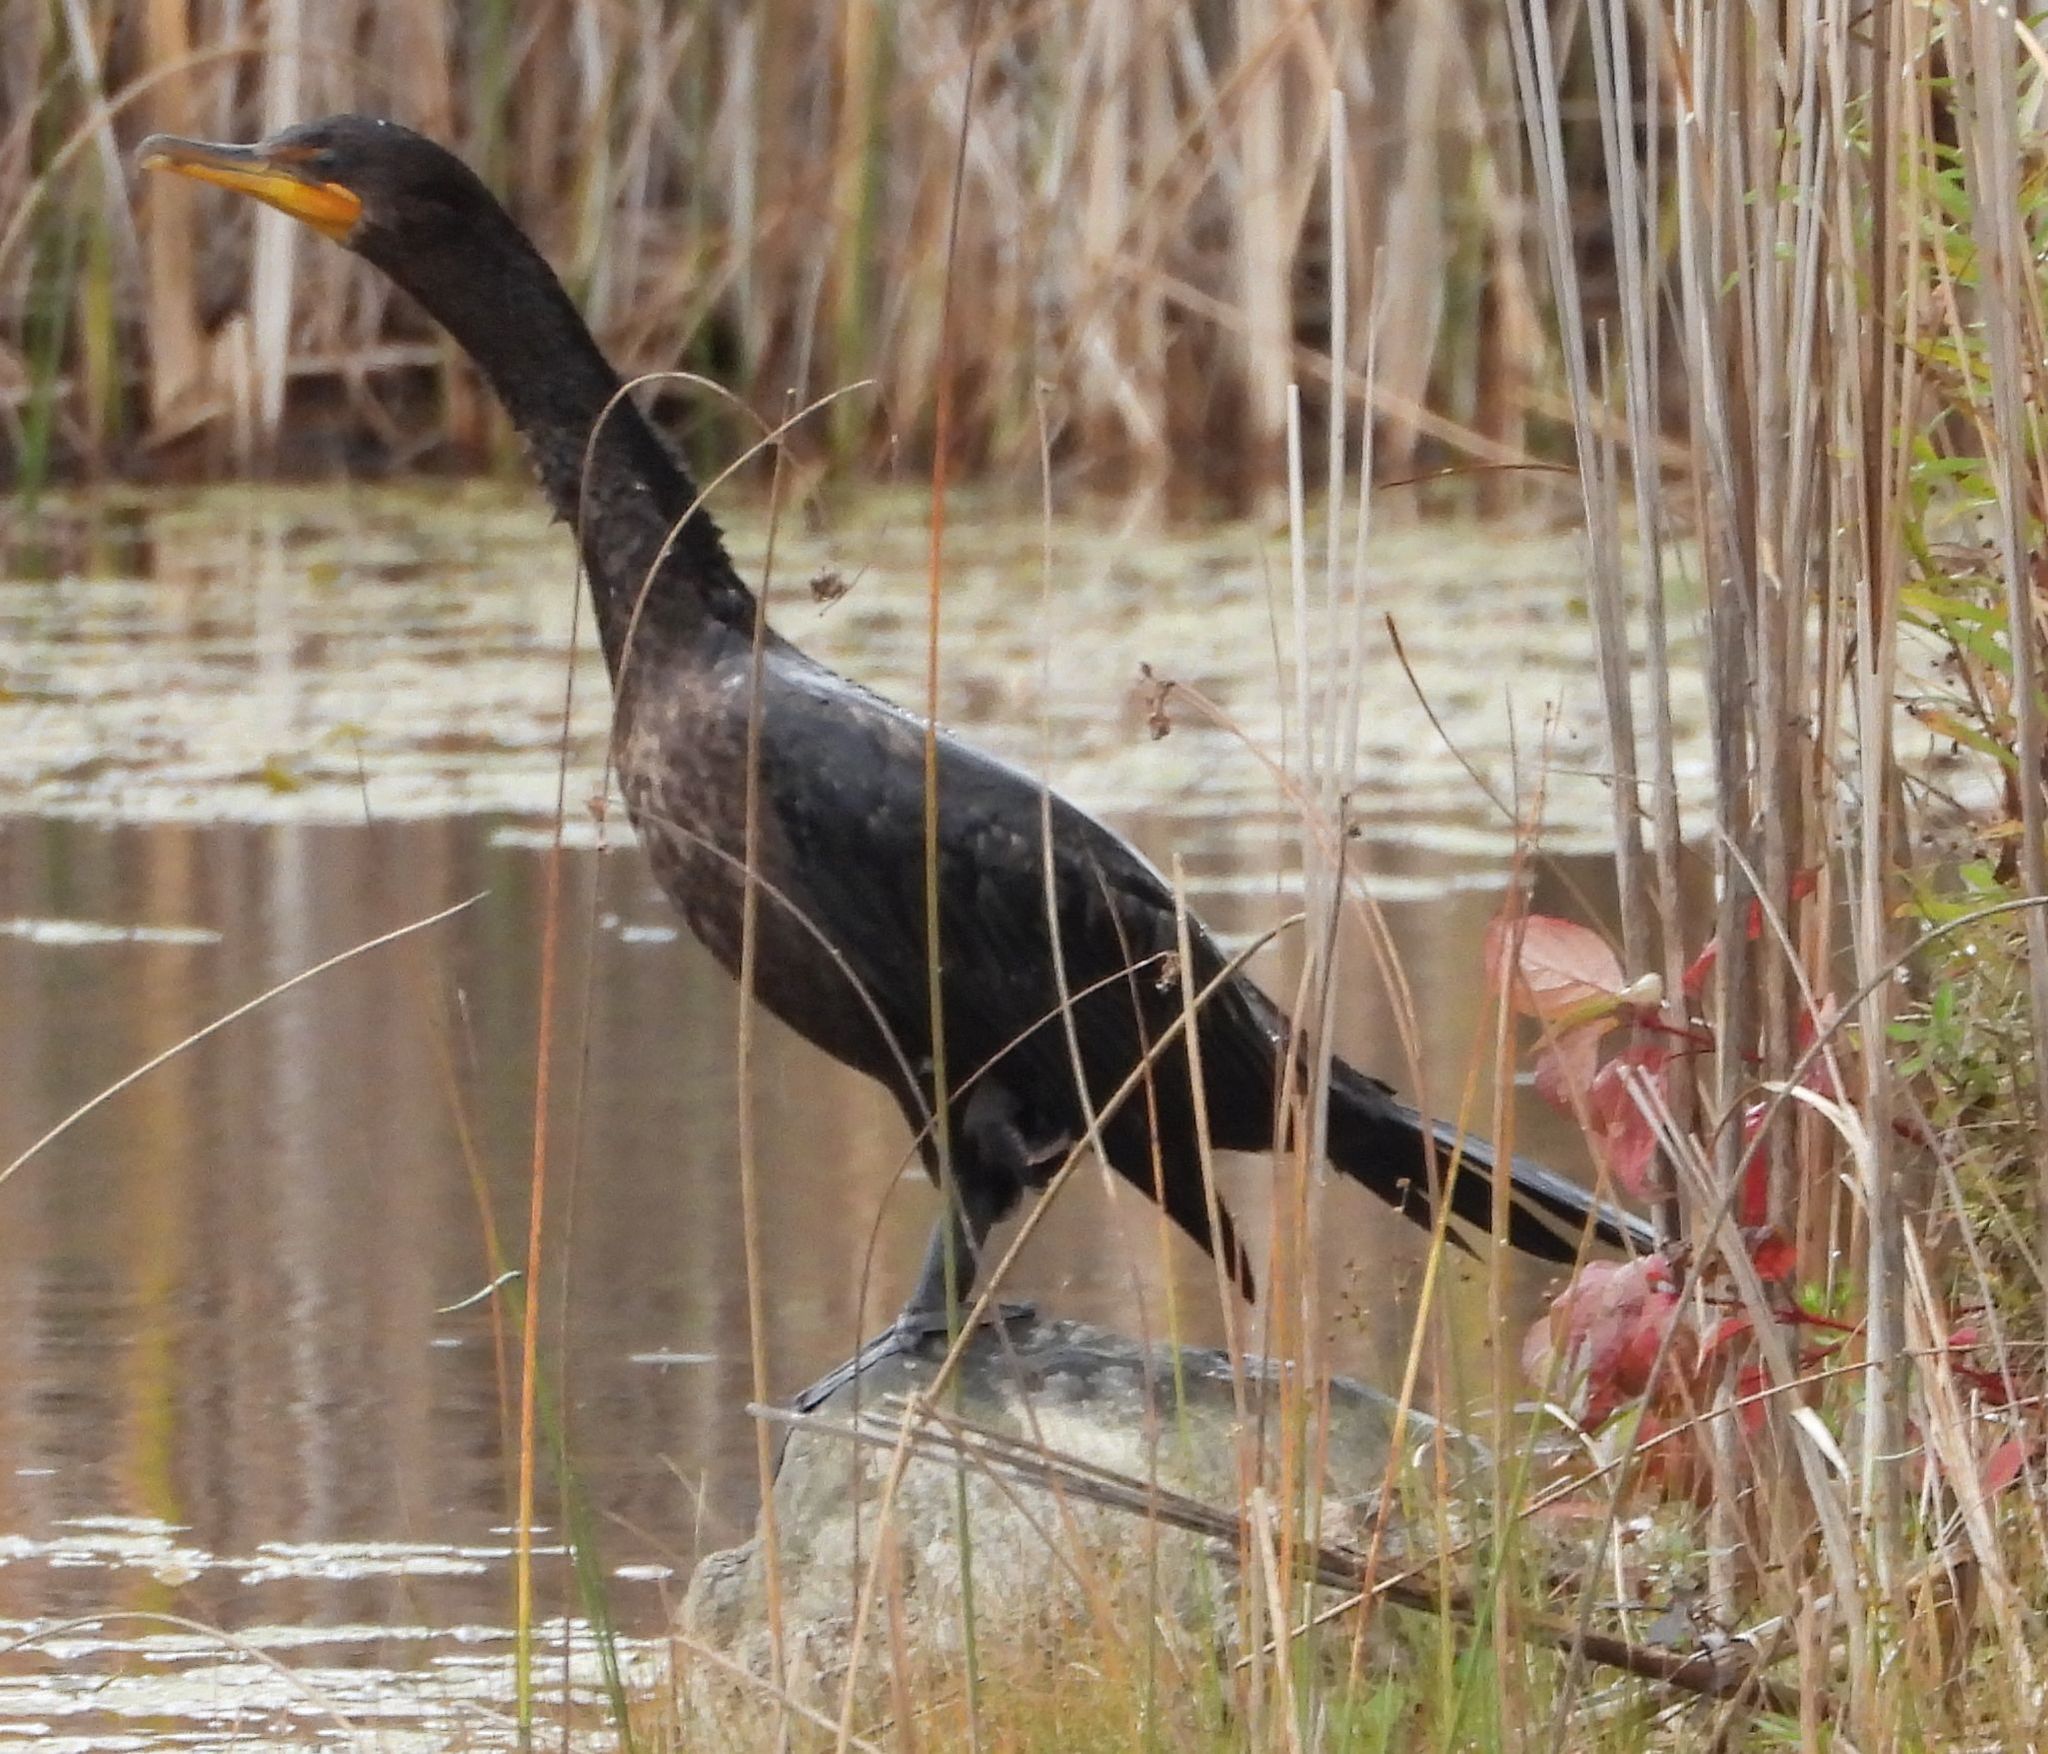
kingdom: Animalia
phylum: Chordata
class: Aves
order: Suliformes
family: Phalacrocoracidae
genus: Phalacrocorax
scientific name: Phalacrocorax auritus
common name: Double-crested cormorant
